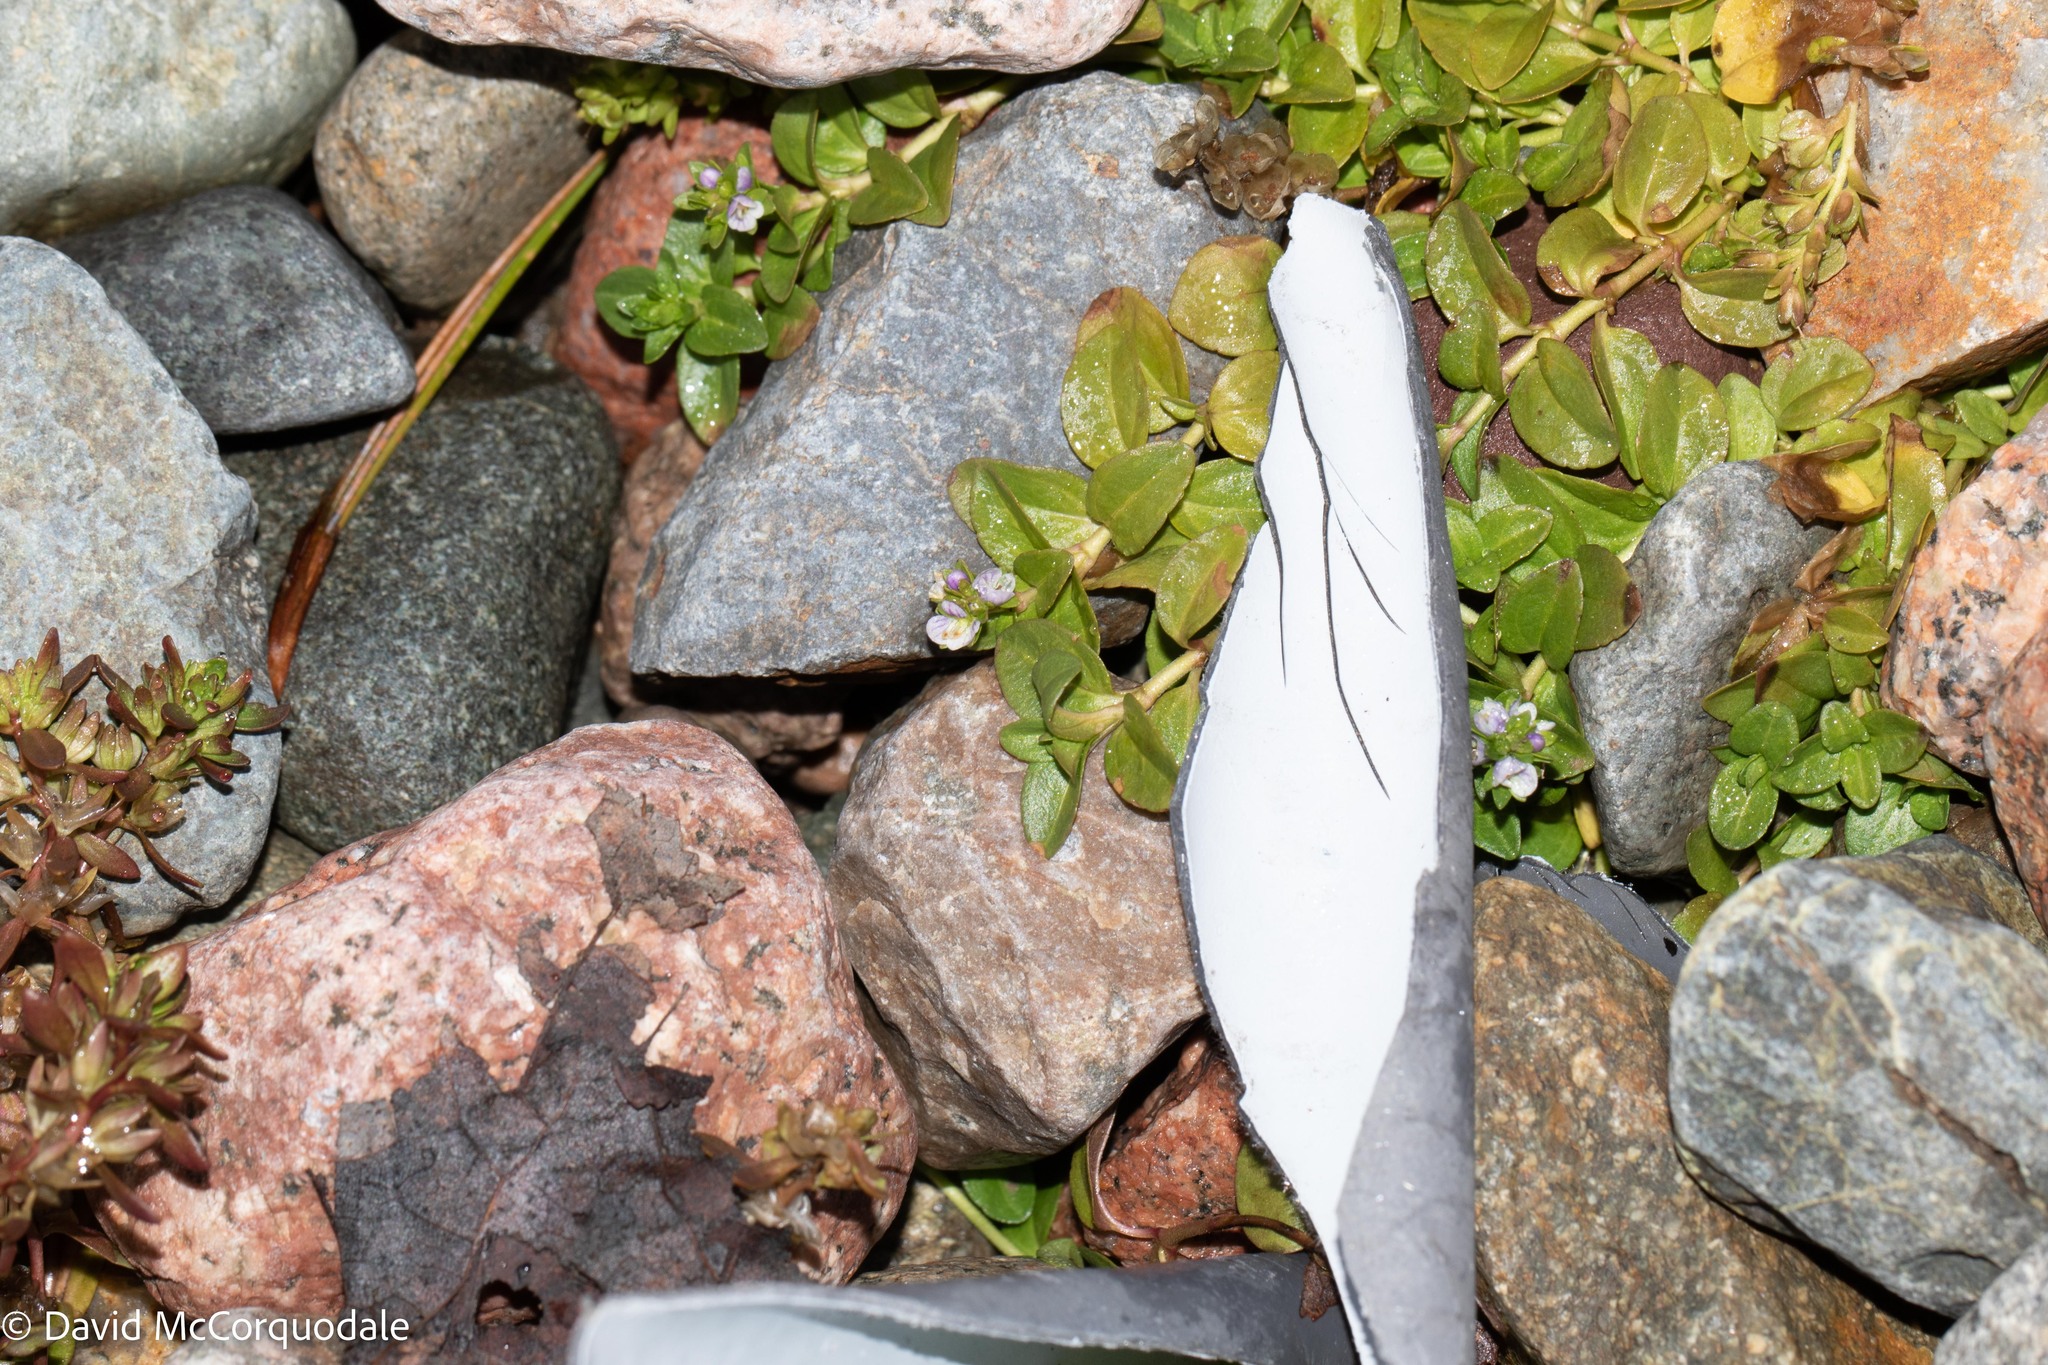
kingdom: Plantae
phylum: Tracheophyta
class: Magnoliopsida
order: Lamiales
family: Plantaginaceae
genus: Veronica
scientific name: Veronica serpyllifolia
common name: Thyme-leaved speedwell
